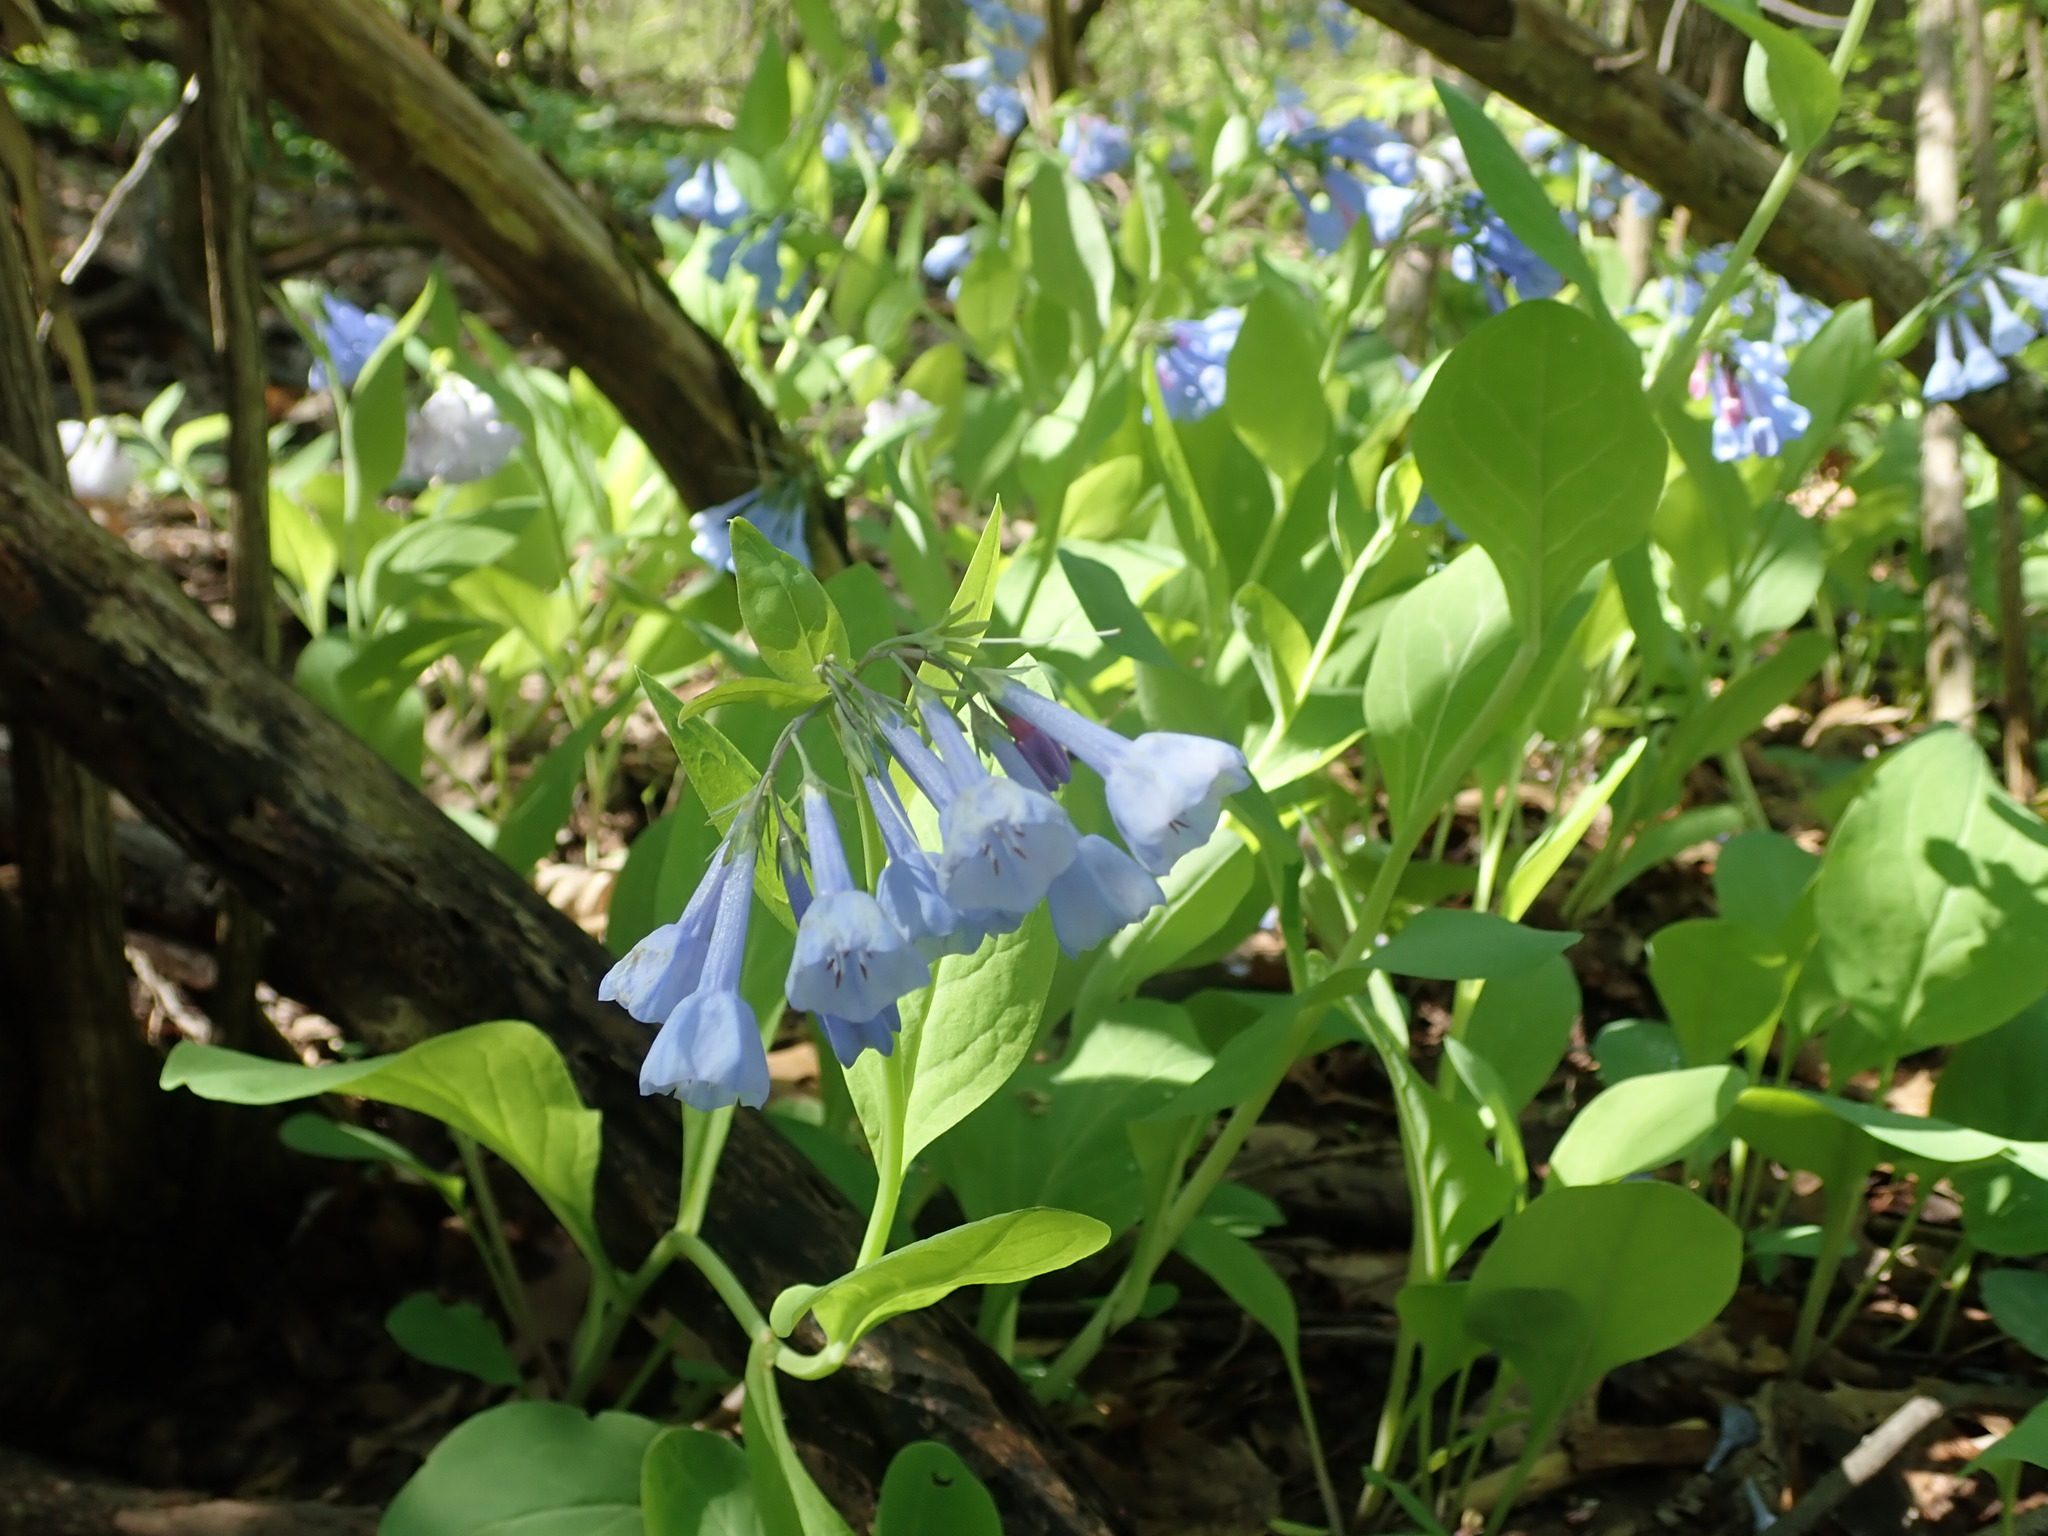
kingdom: Plantae
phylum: Tracheophyta
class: Magnoliopsida
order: Boraginales
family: Boraginaceae
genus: Mertensia
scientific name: Mertensia virginica
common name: Virginia bluebells
